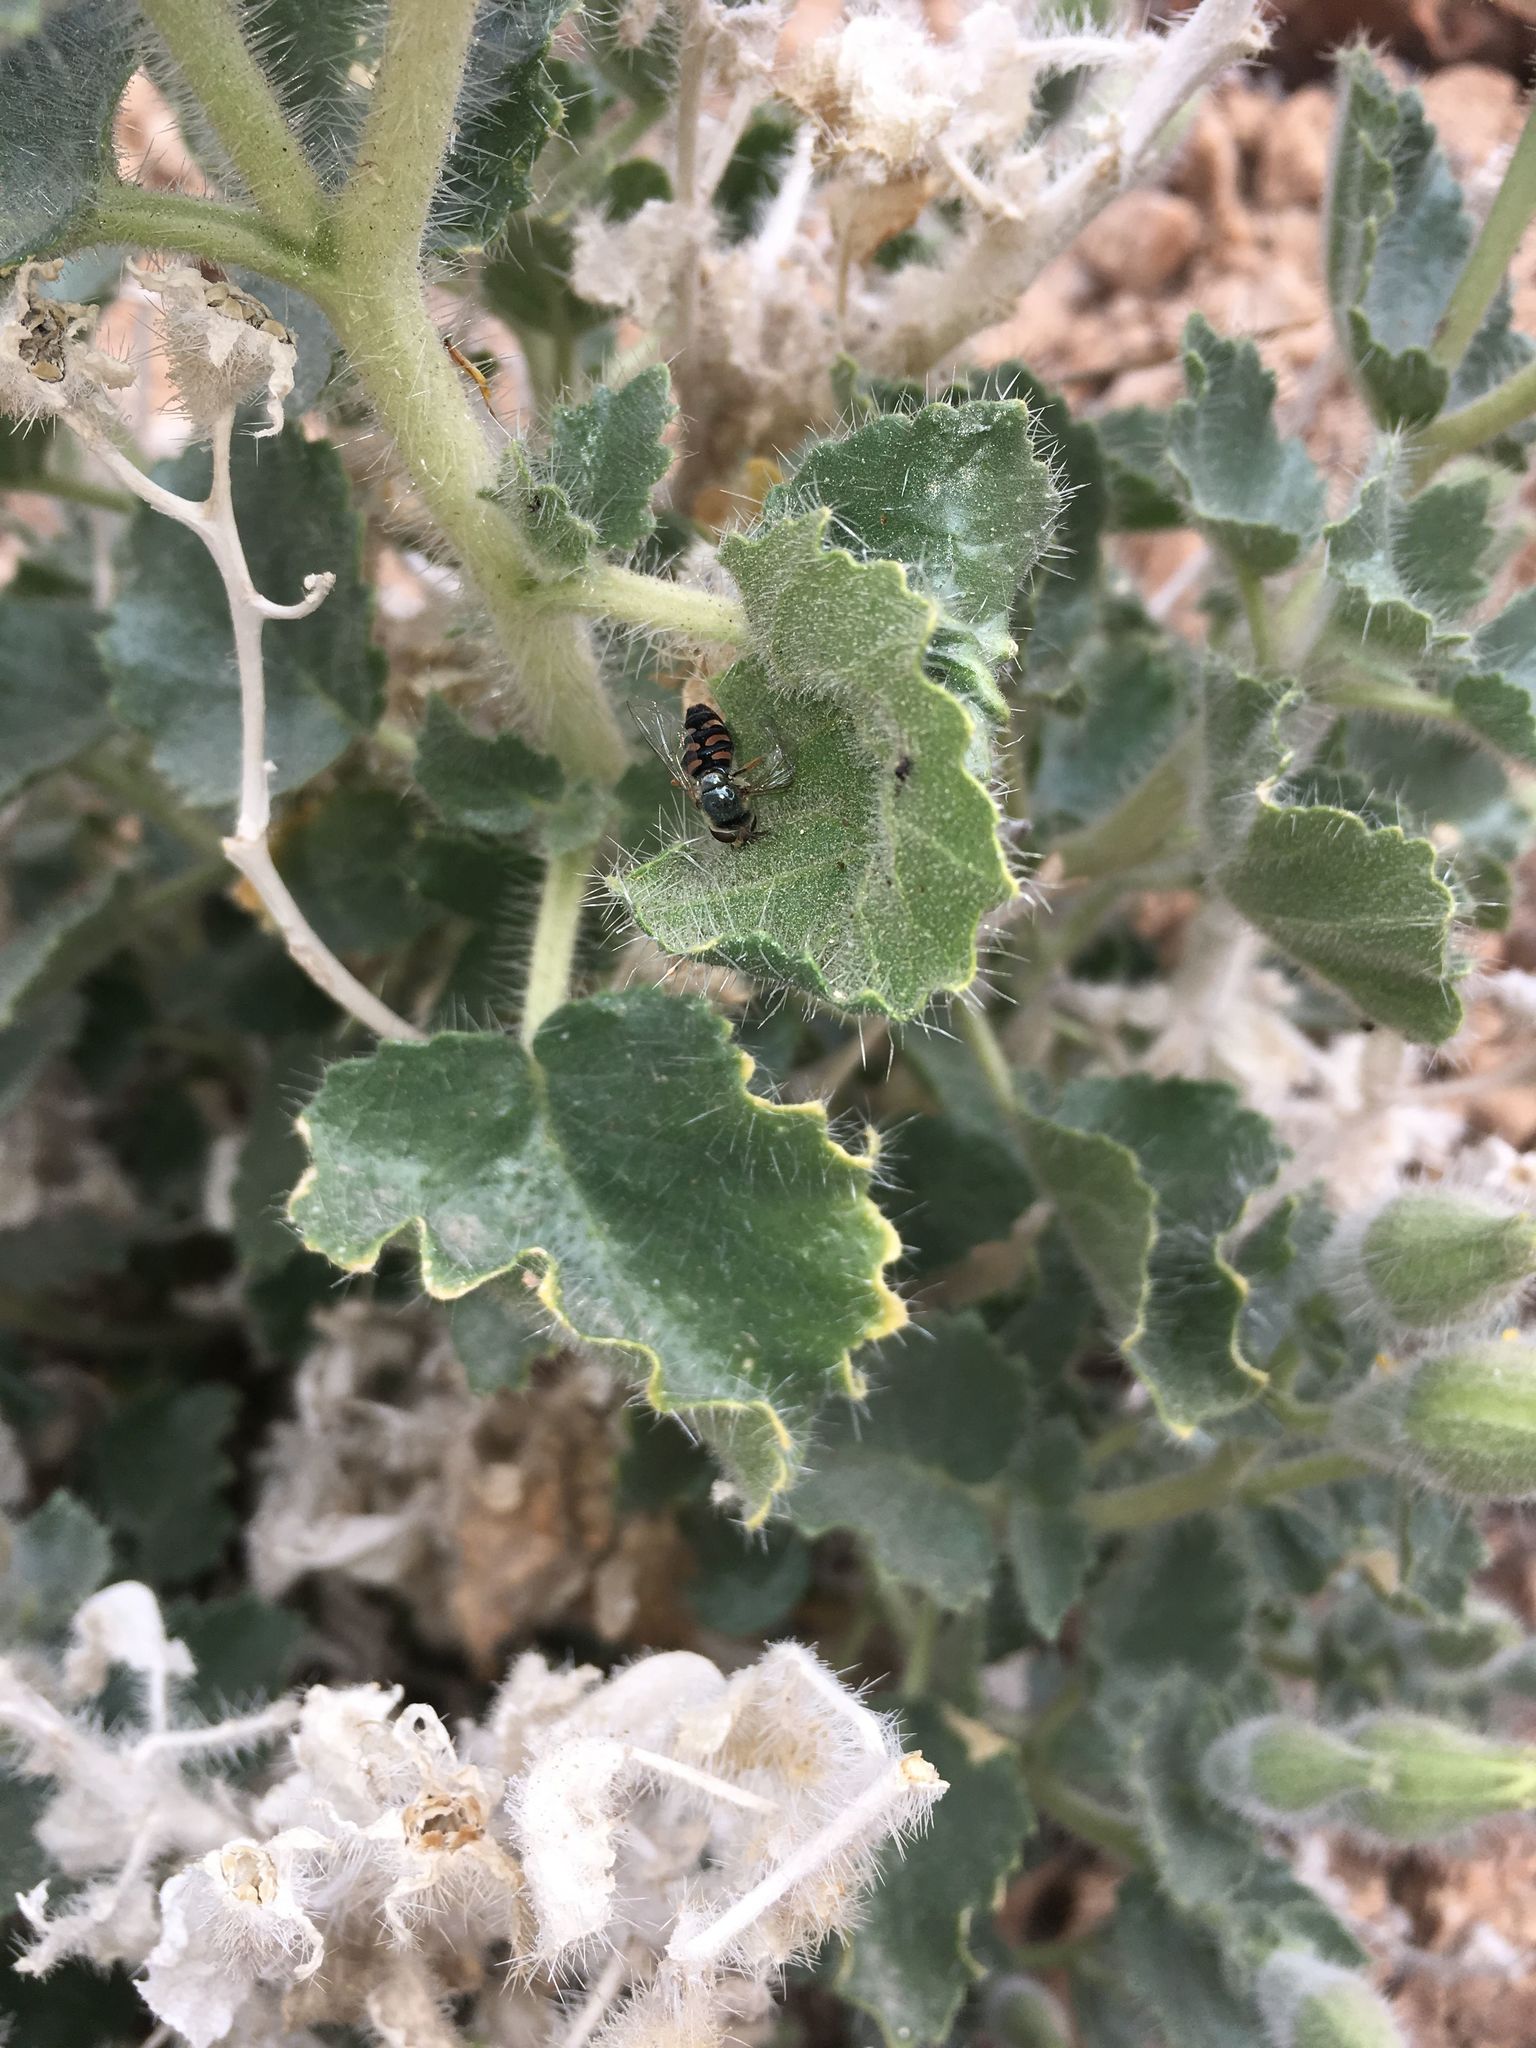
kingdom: Animalia
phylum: Arthropoda
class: Insecta
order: Diptera
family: Syrphidae
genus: Eupeodes
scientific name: Eupeodes volucris
